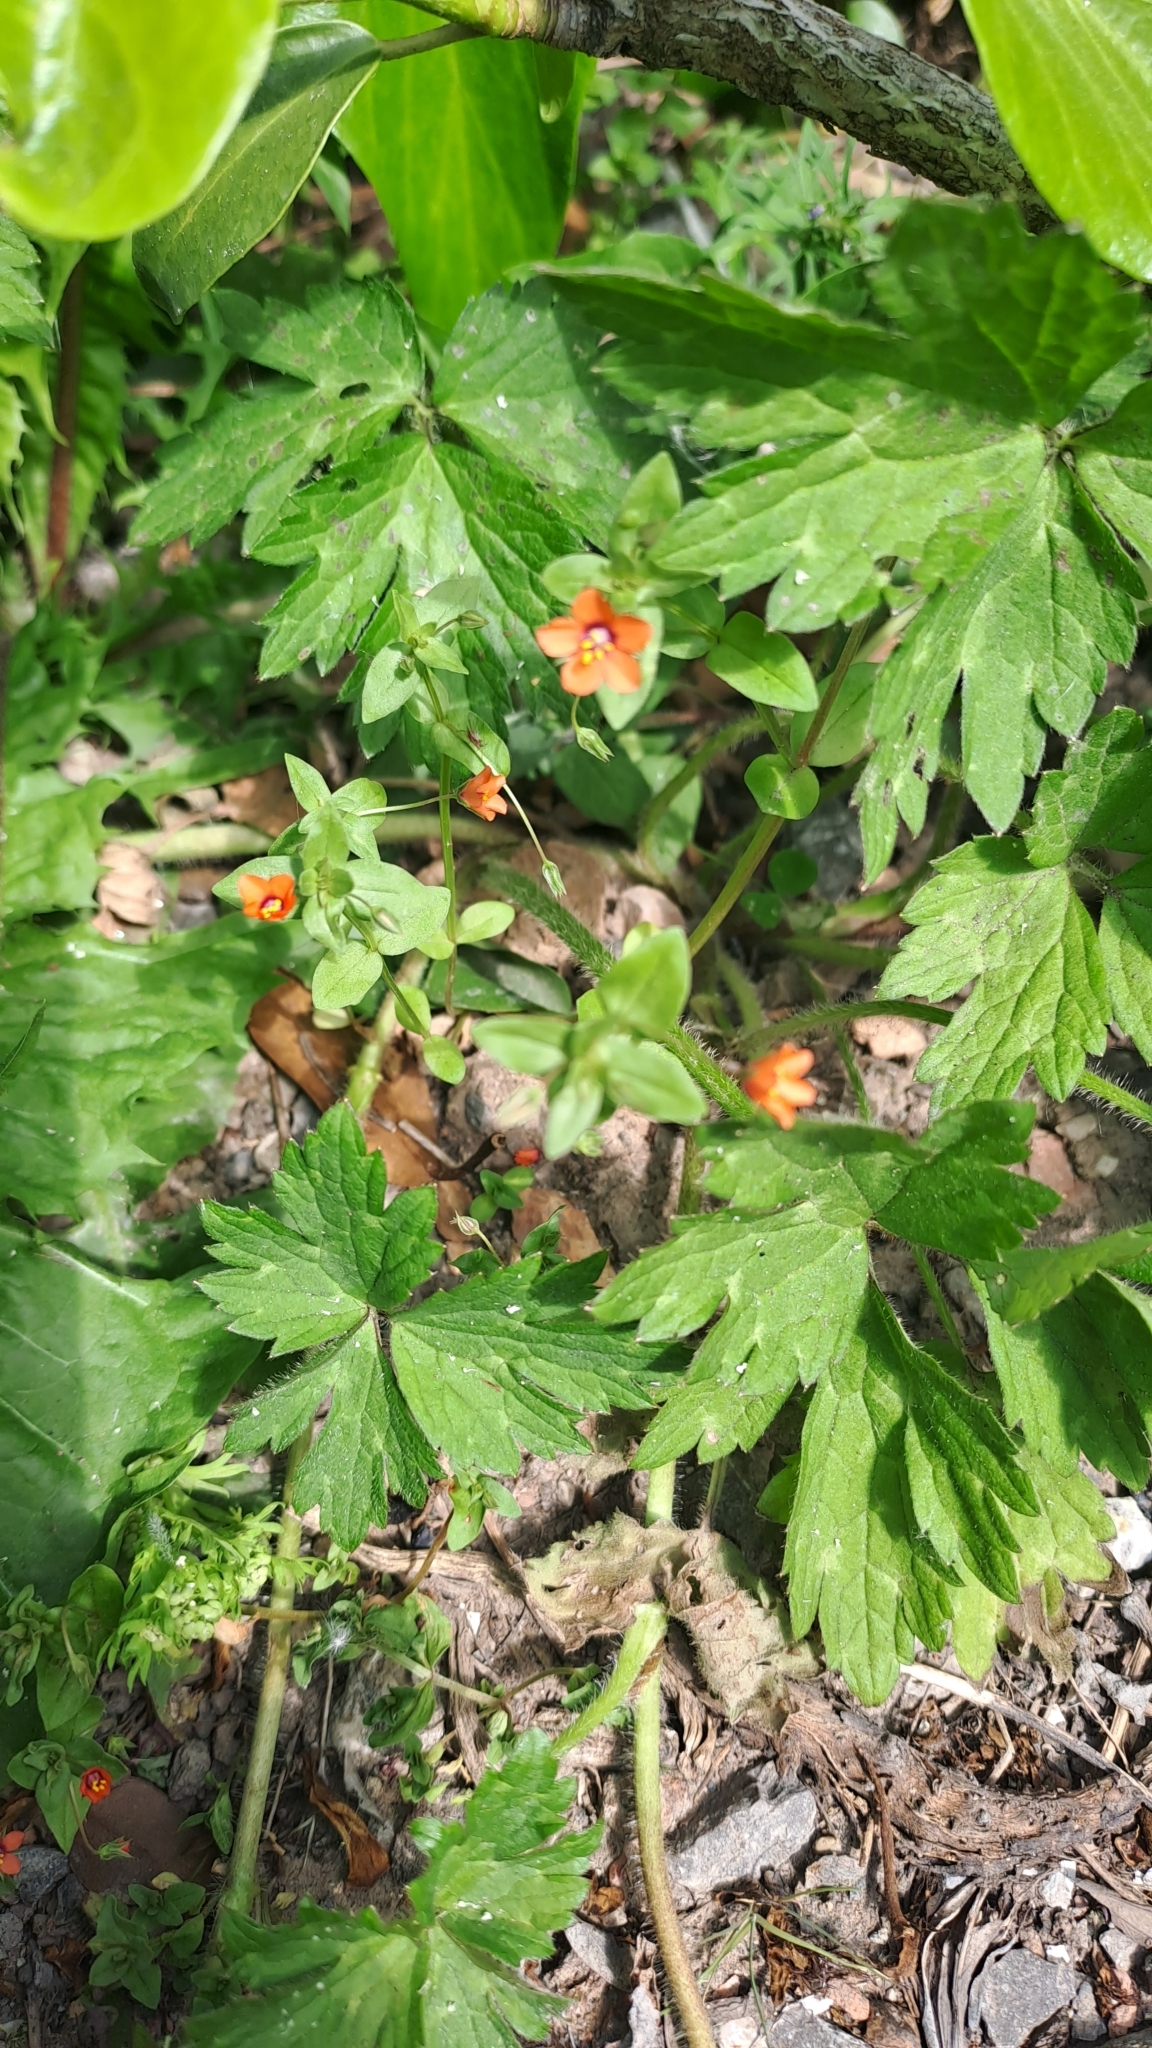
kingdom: Plantae
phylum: Tracheophyta
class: Magnoliopsida
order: Ericales
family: Primulaceae
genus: Lysimachia
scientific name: Lysimachia arvensis
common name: Scarlet pimpernel
